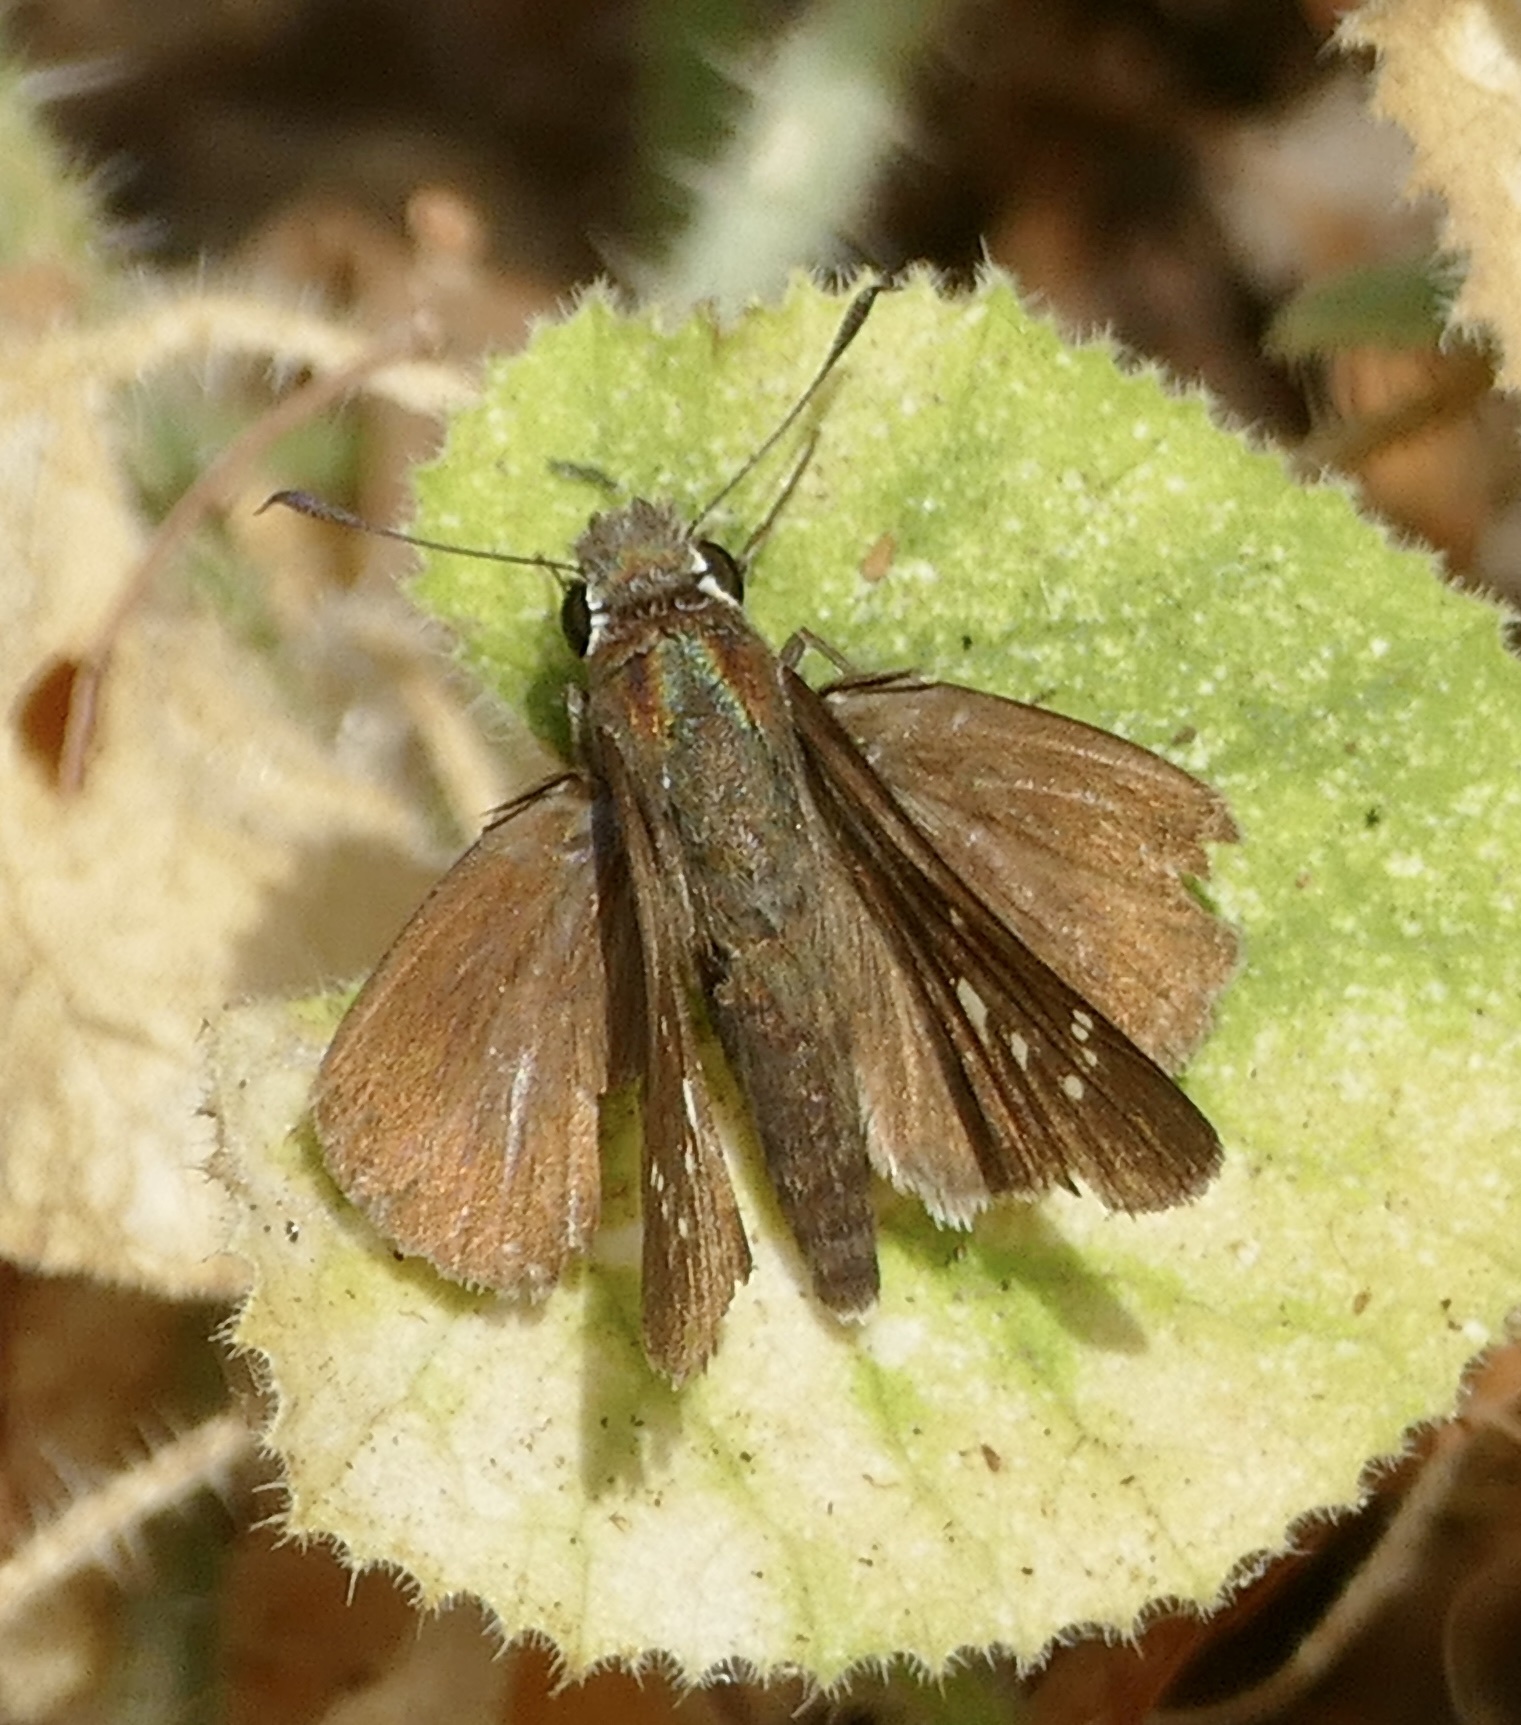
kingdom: Animalia
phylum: Arthropoda
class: Insecta
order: Lepidoptera
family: Hesperiidae
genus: Borbo
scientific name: Borbo borbonica
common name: Olive-haired swift
